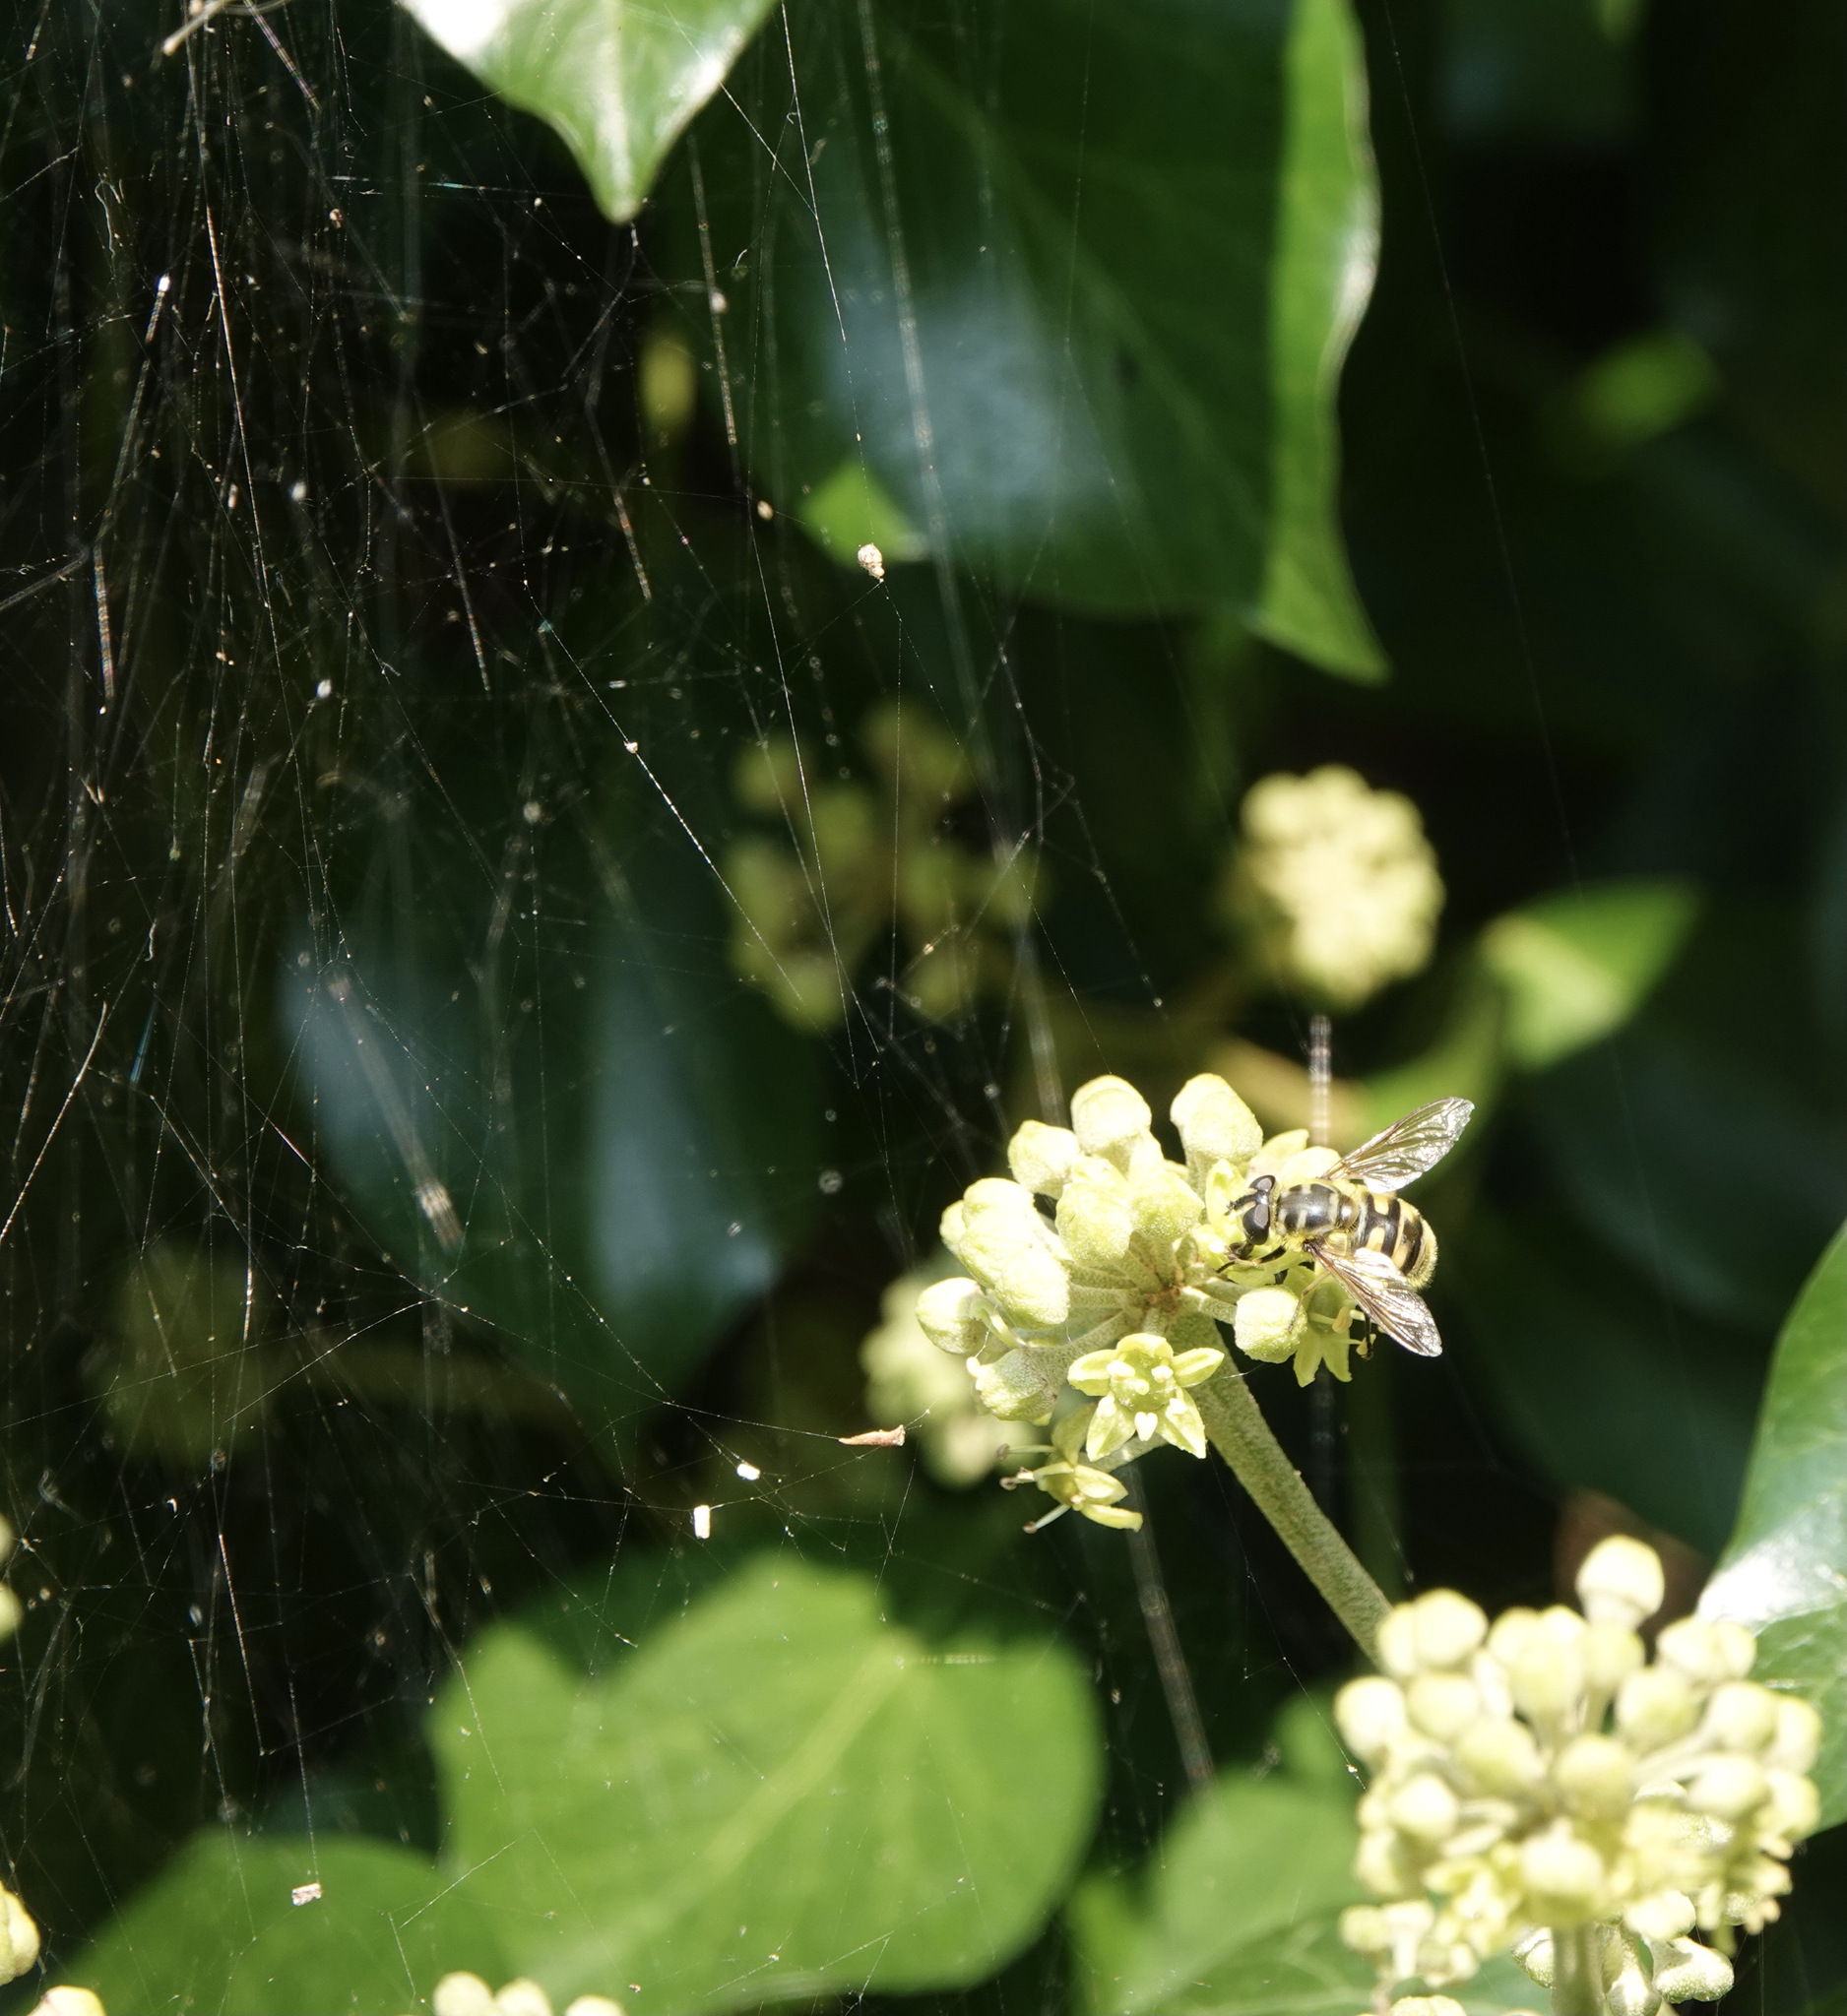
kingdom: Animalia
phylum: Arthropoda
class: Insecta
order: Diptera
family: Syrphidae
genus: Myathropa
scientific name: Myathropa florea
